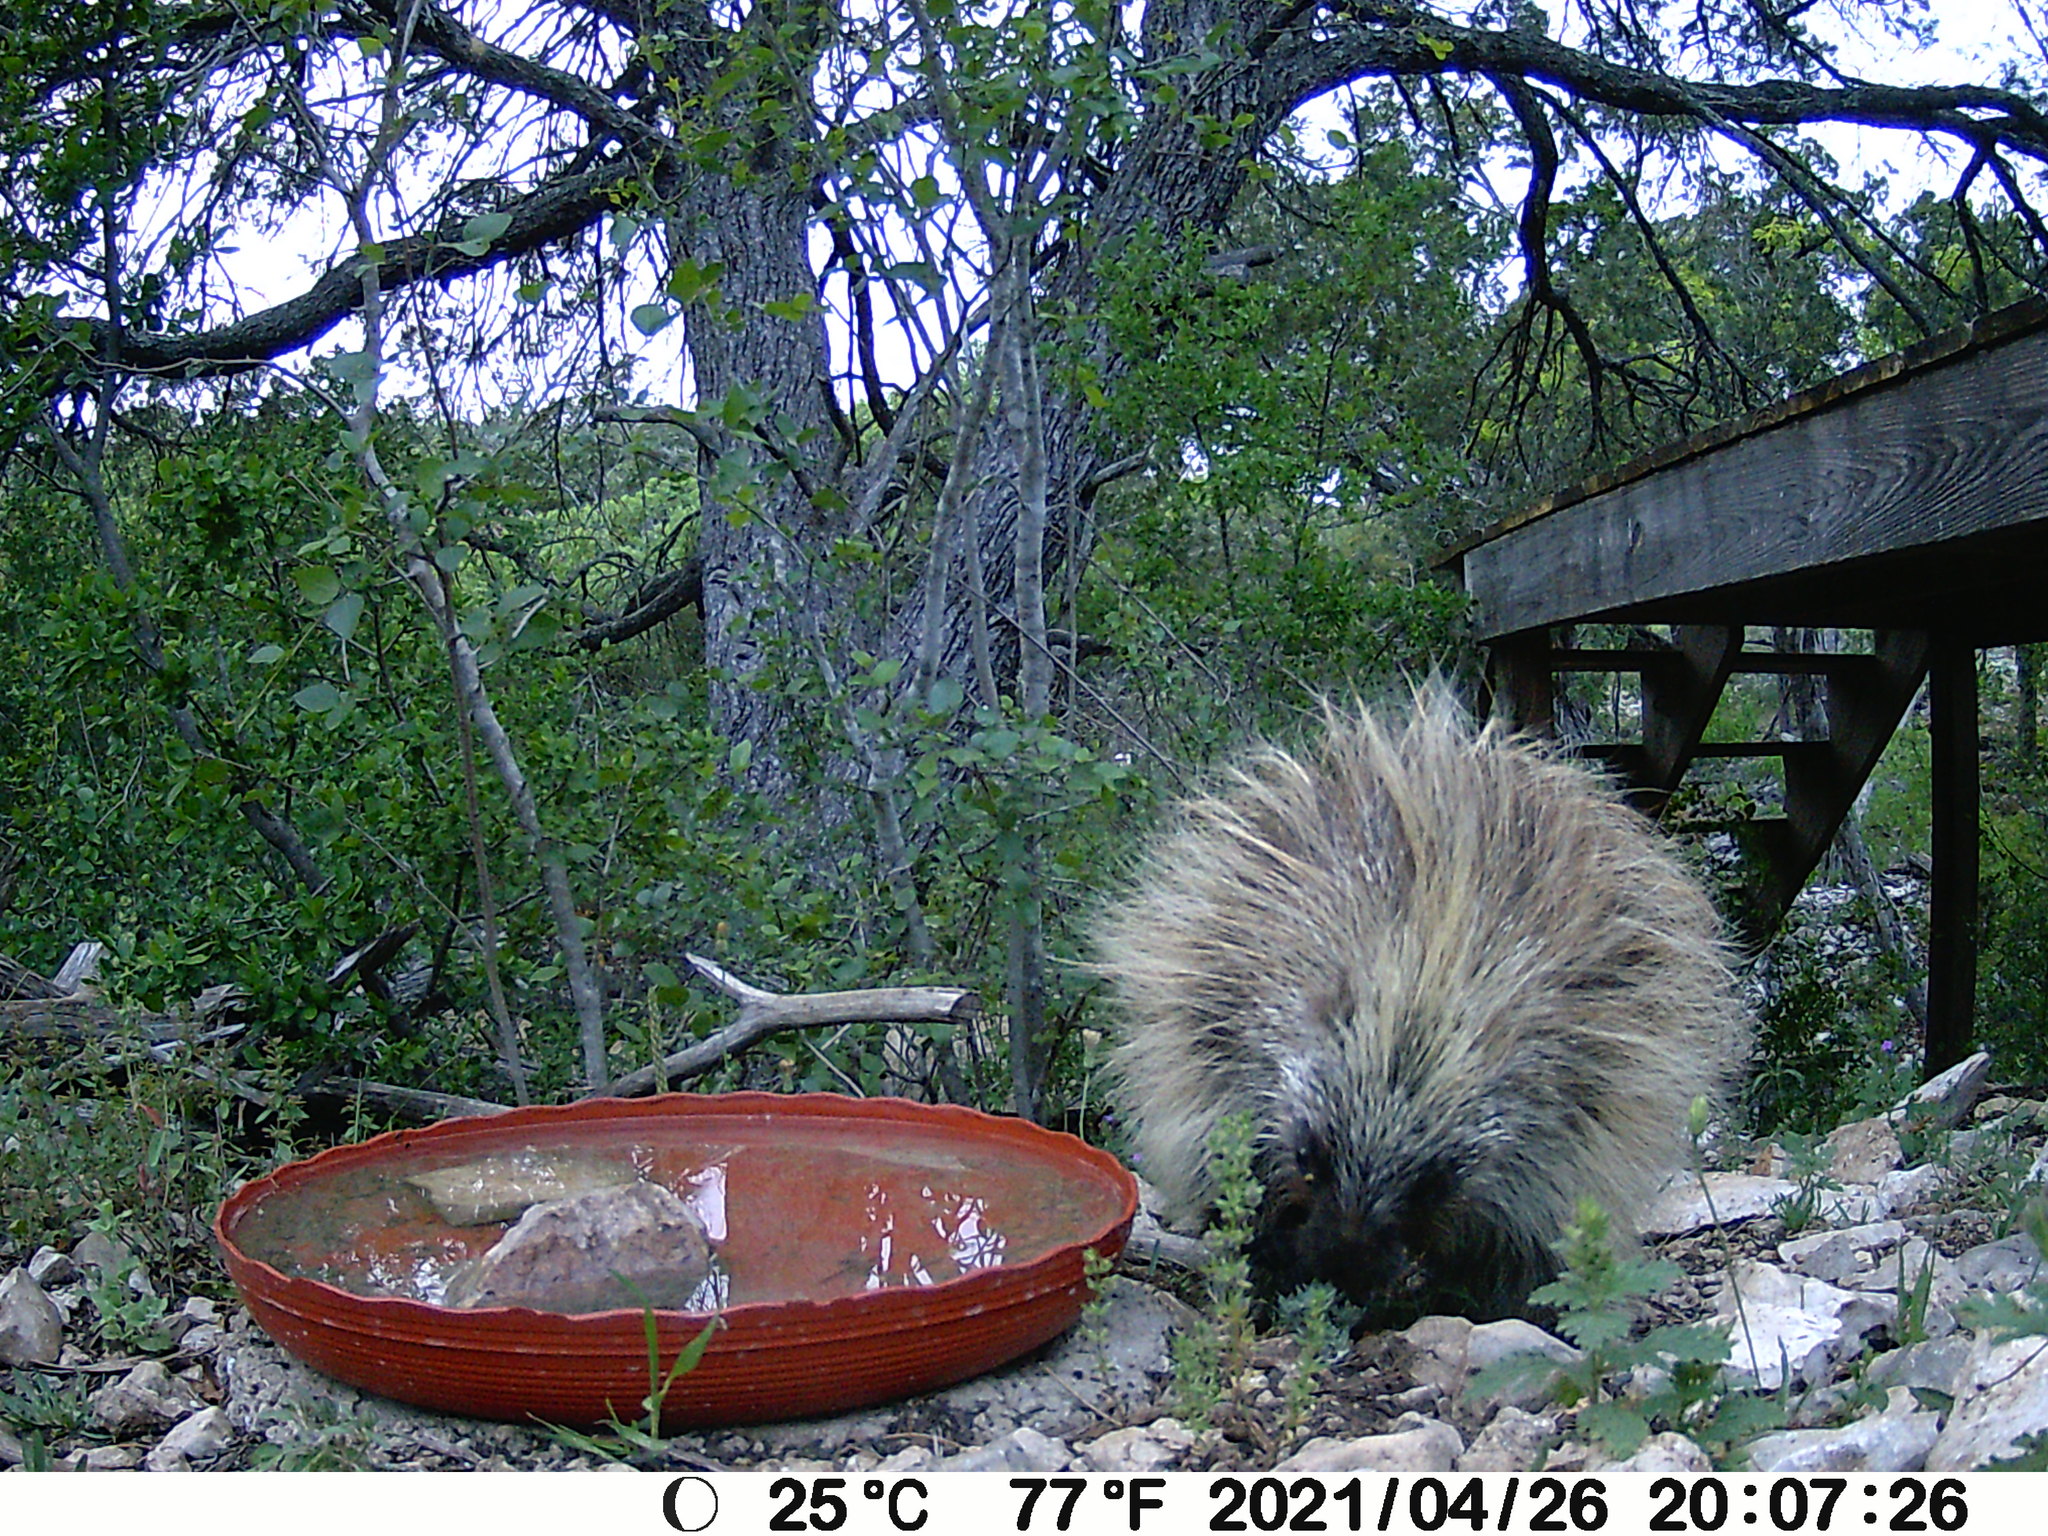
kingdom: Animalia
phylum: Chordata
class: Mammalia
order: Rodentia
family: Erethizontidae
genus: Erethizon
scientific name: Erethizon dorsatus
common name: North american porcupine
